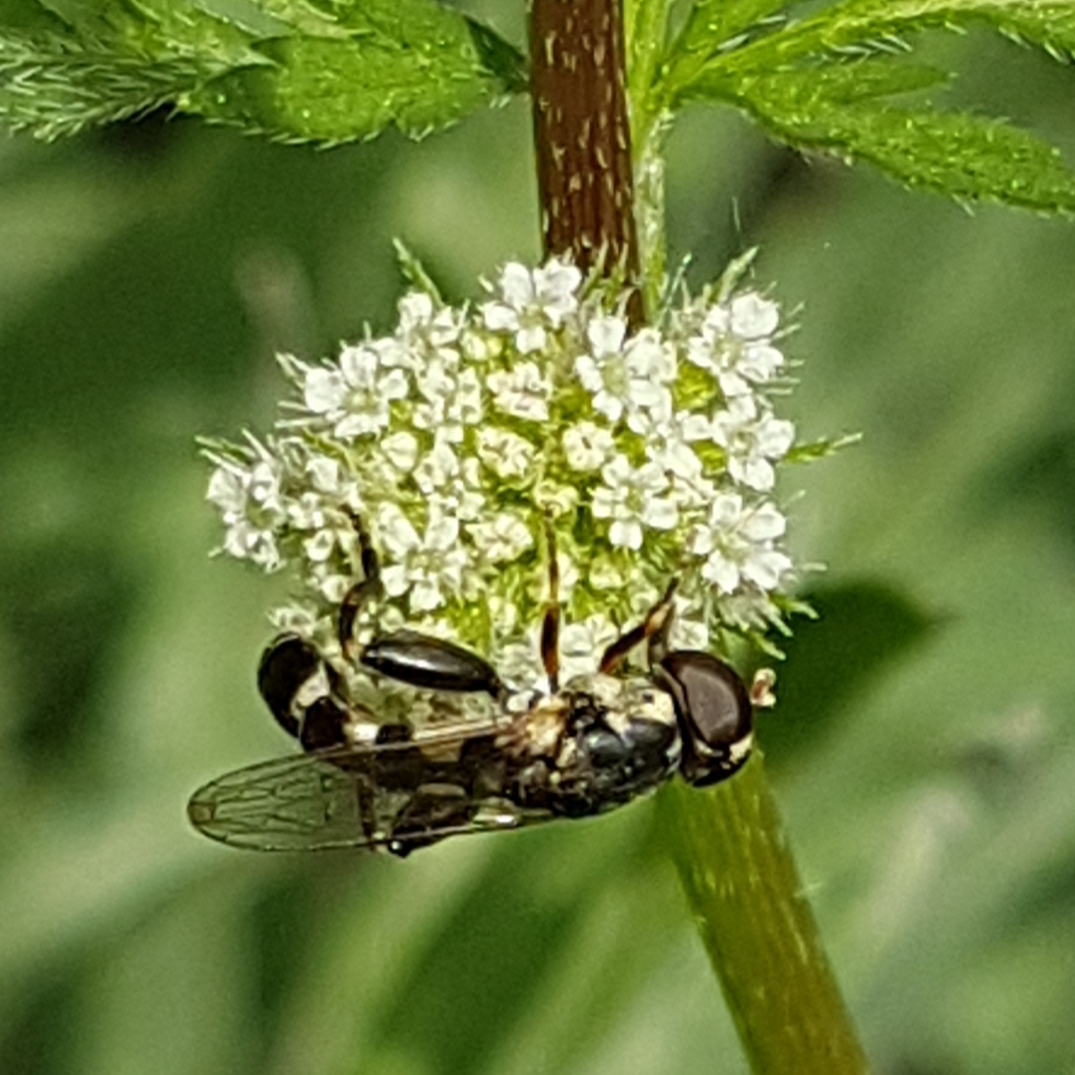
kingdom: Animalia
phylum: Arthropoda
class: Insecta
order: Diptera
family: Syrphidae
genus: Syritta
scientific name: Syritta pipiens
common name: Hover fly
